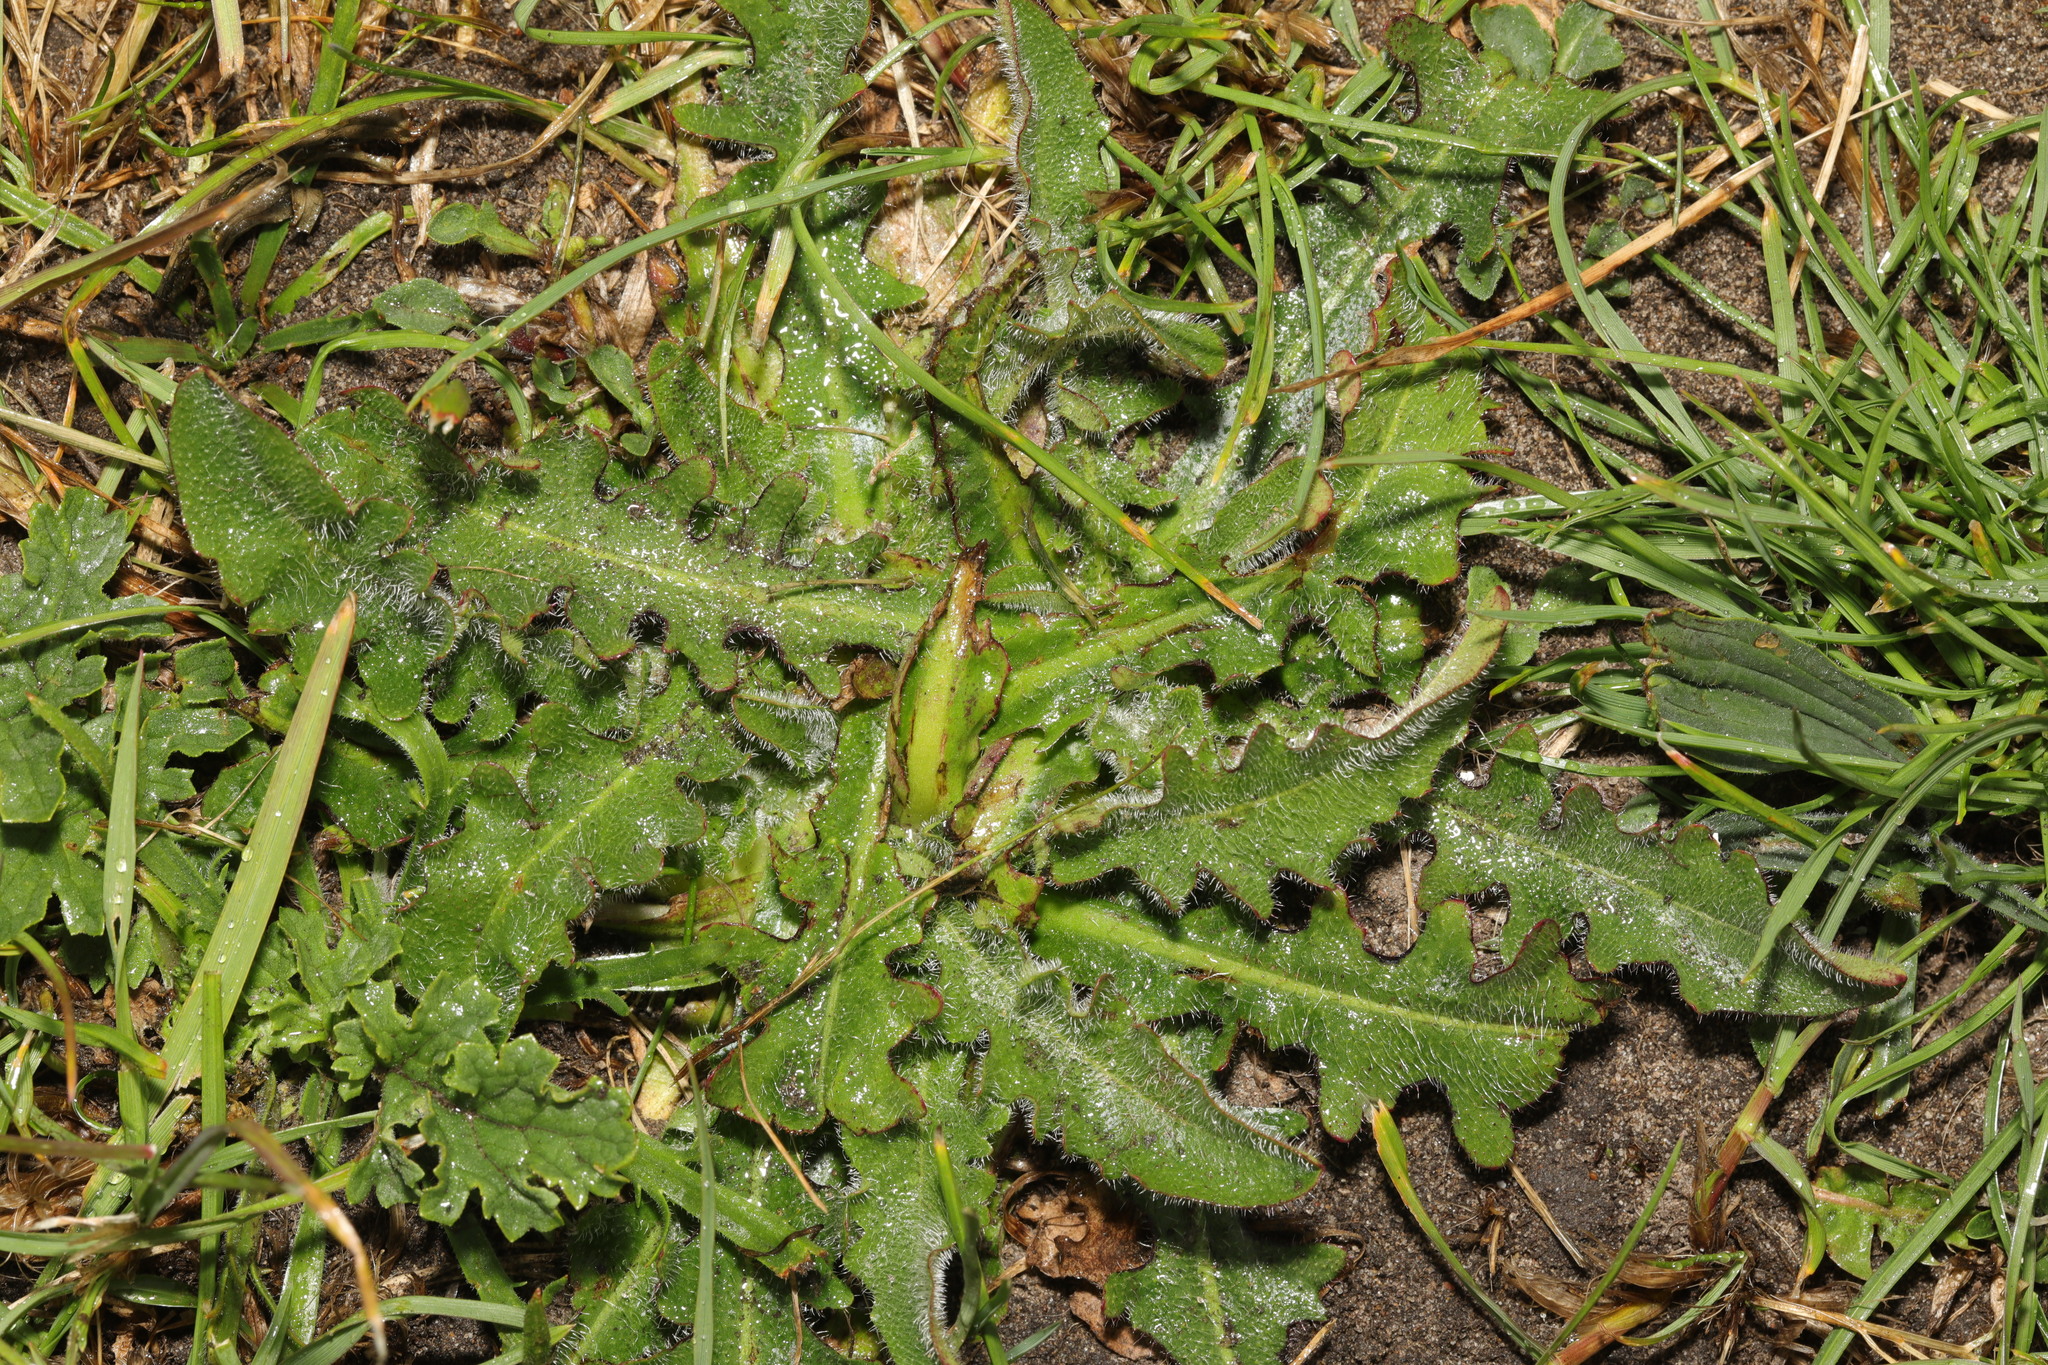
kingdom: Plantae
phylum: Tracheophyta
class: Magnoliopsida
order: Asterales
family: Asteraceae
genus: Hypochaeris
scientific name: Hypochaeris radicata
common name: Flatweed
